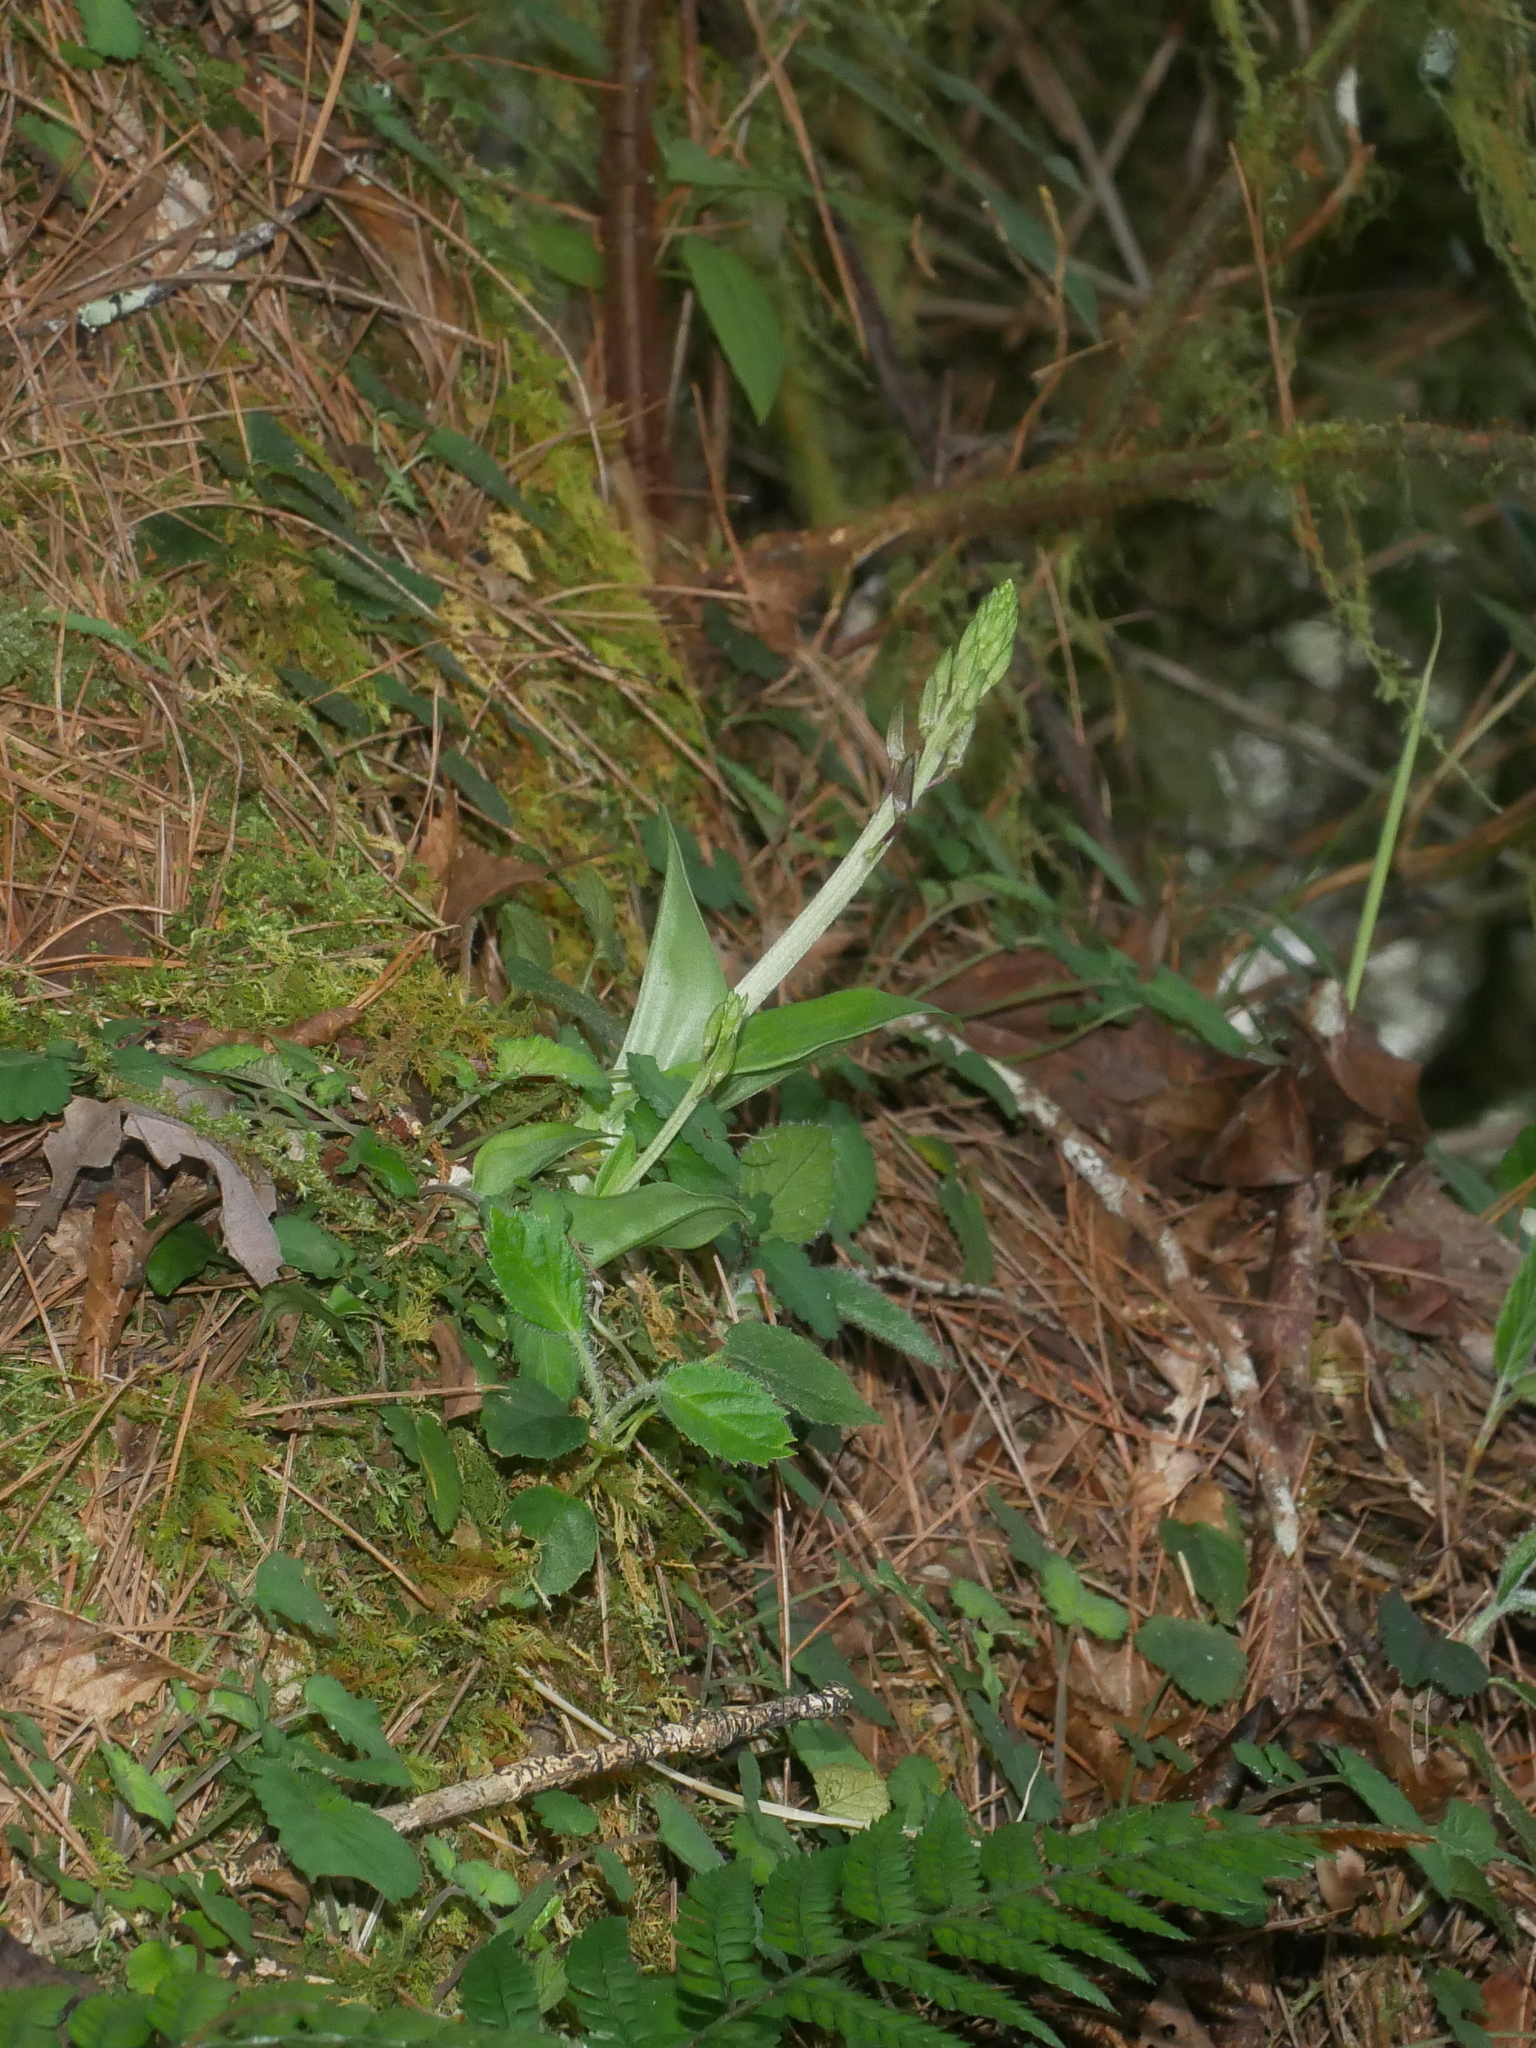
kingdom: Plantae
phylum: Tracheophyta
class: Liliopsida
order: Asparagales
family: Orchidaceae
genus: Liparis
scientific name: Liparis derchiensis
